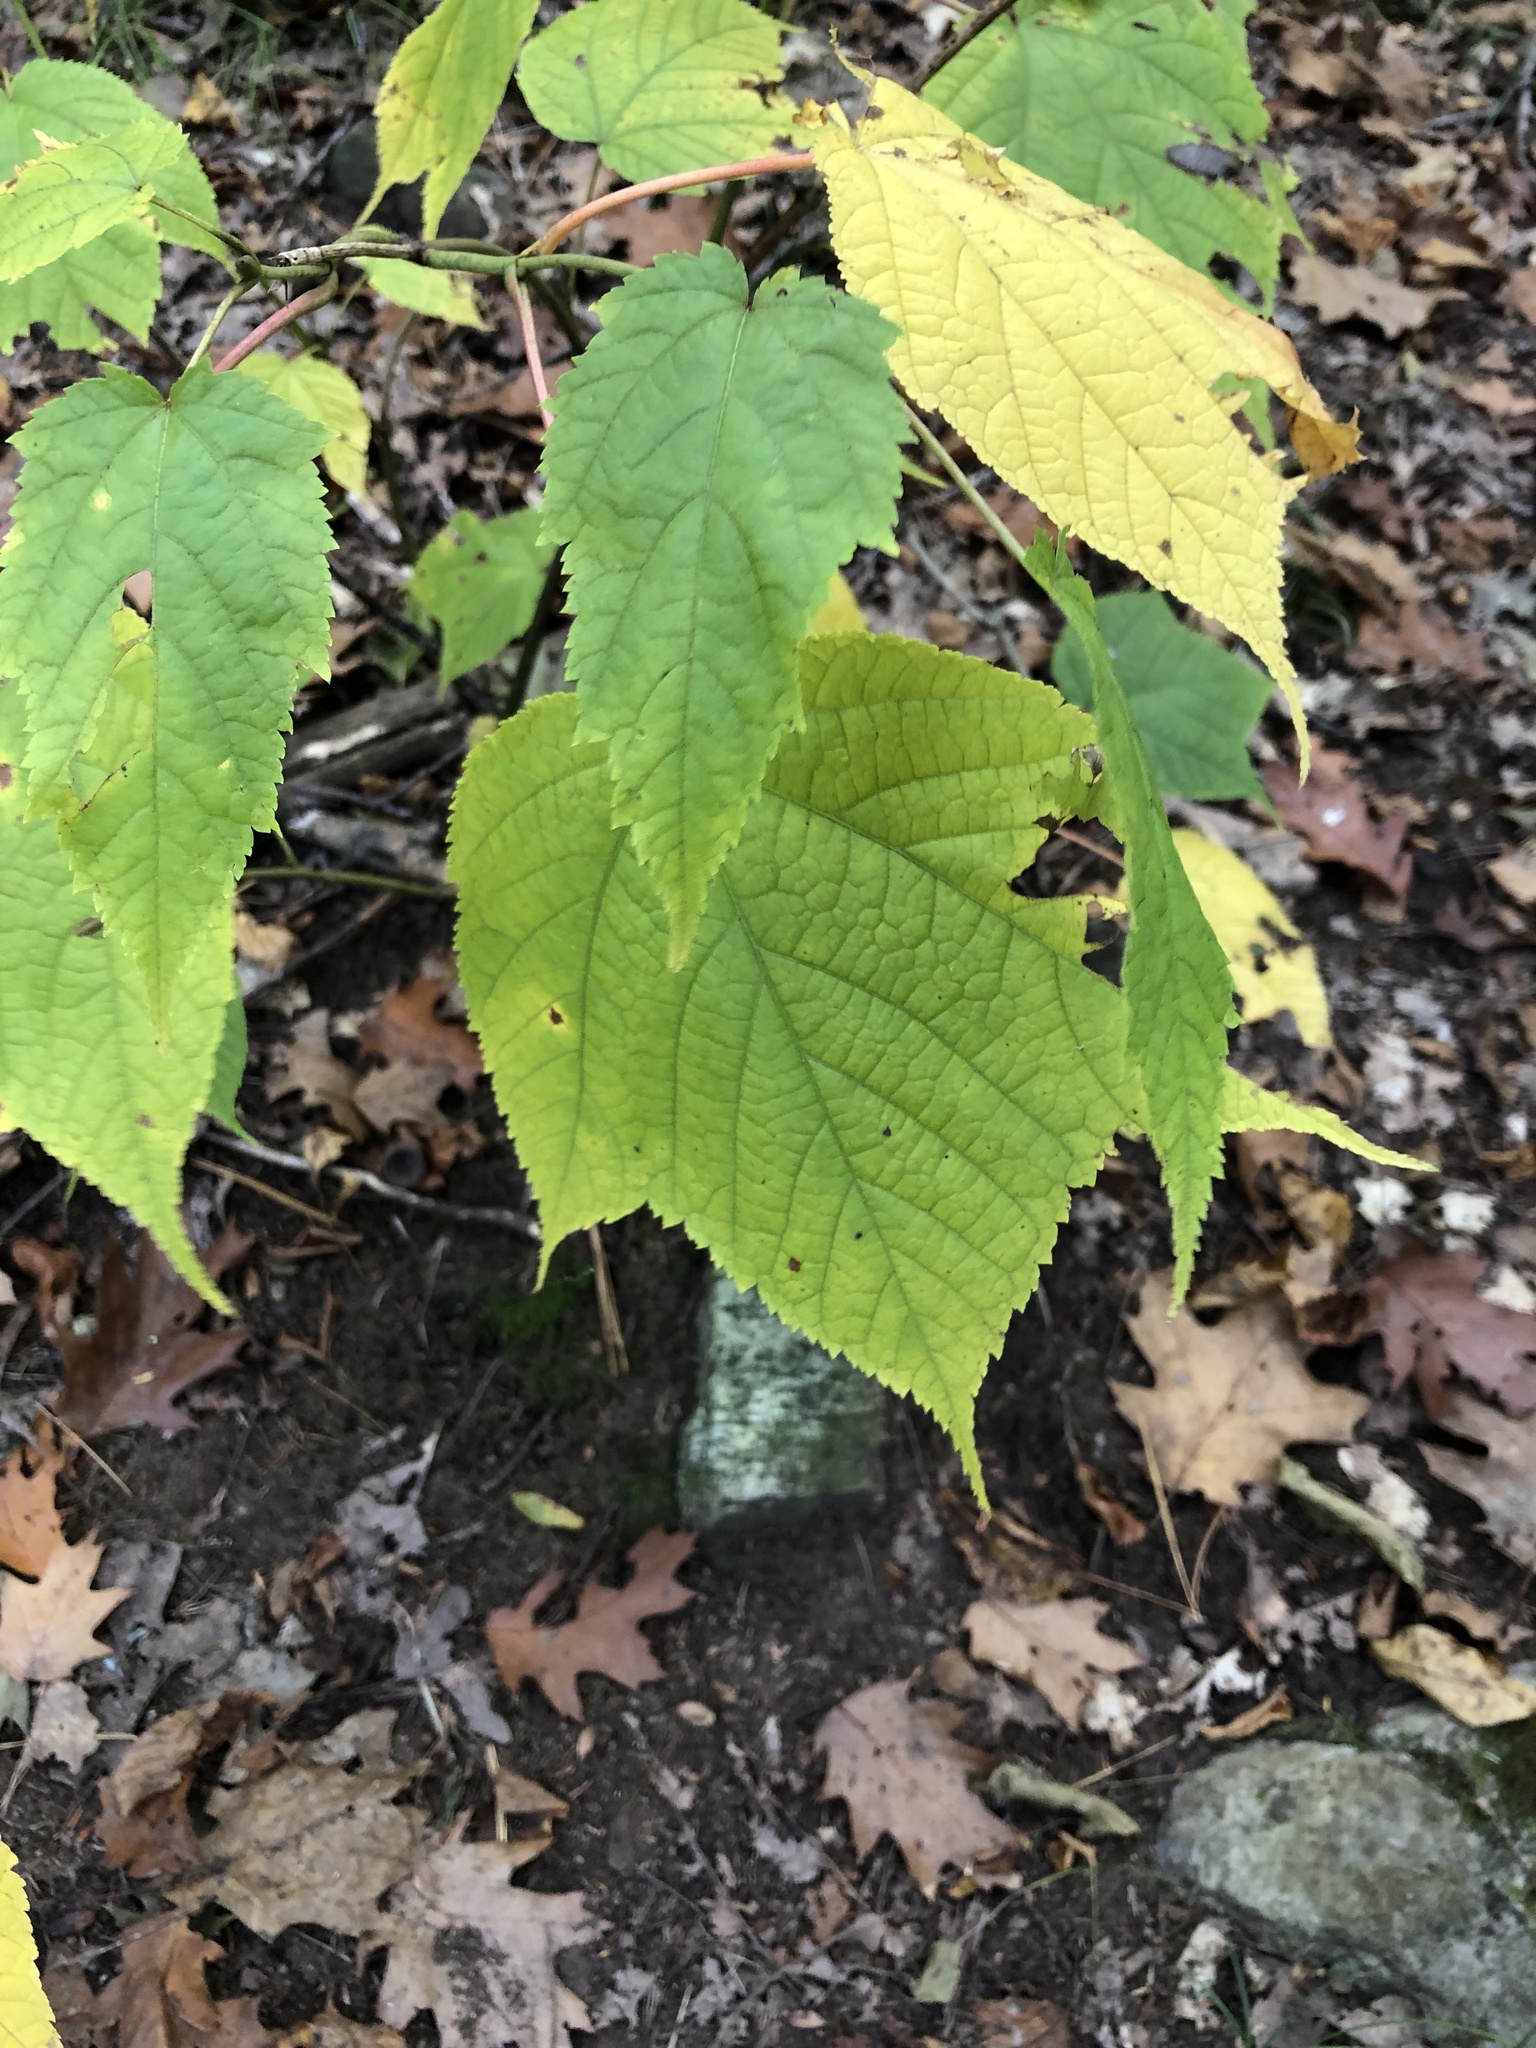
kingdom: Plantae
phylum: Tracheophyta
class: Magnoliopsida
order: Sapindales
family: Sapindaceae
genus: Acer
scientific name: Acer pensylvanicum
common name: Moosewood
